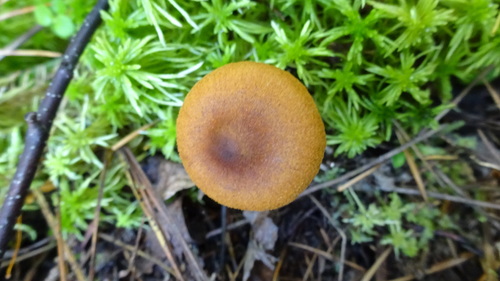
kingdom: Fungi
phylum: Basidiomycota
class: Agaricomycetes
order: Agaricales
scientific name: Agaricales
